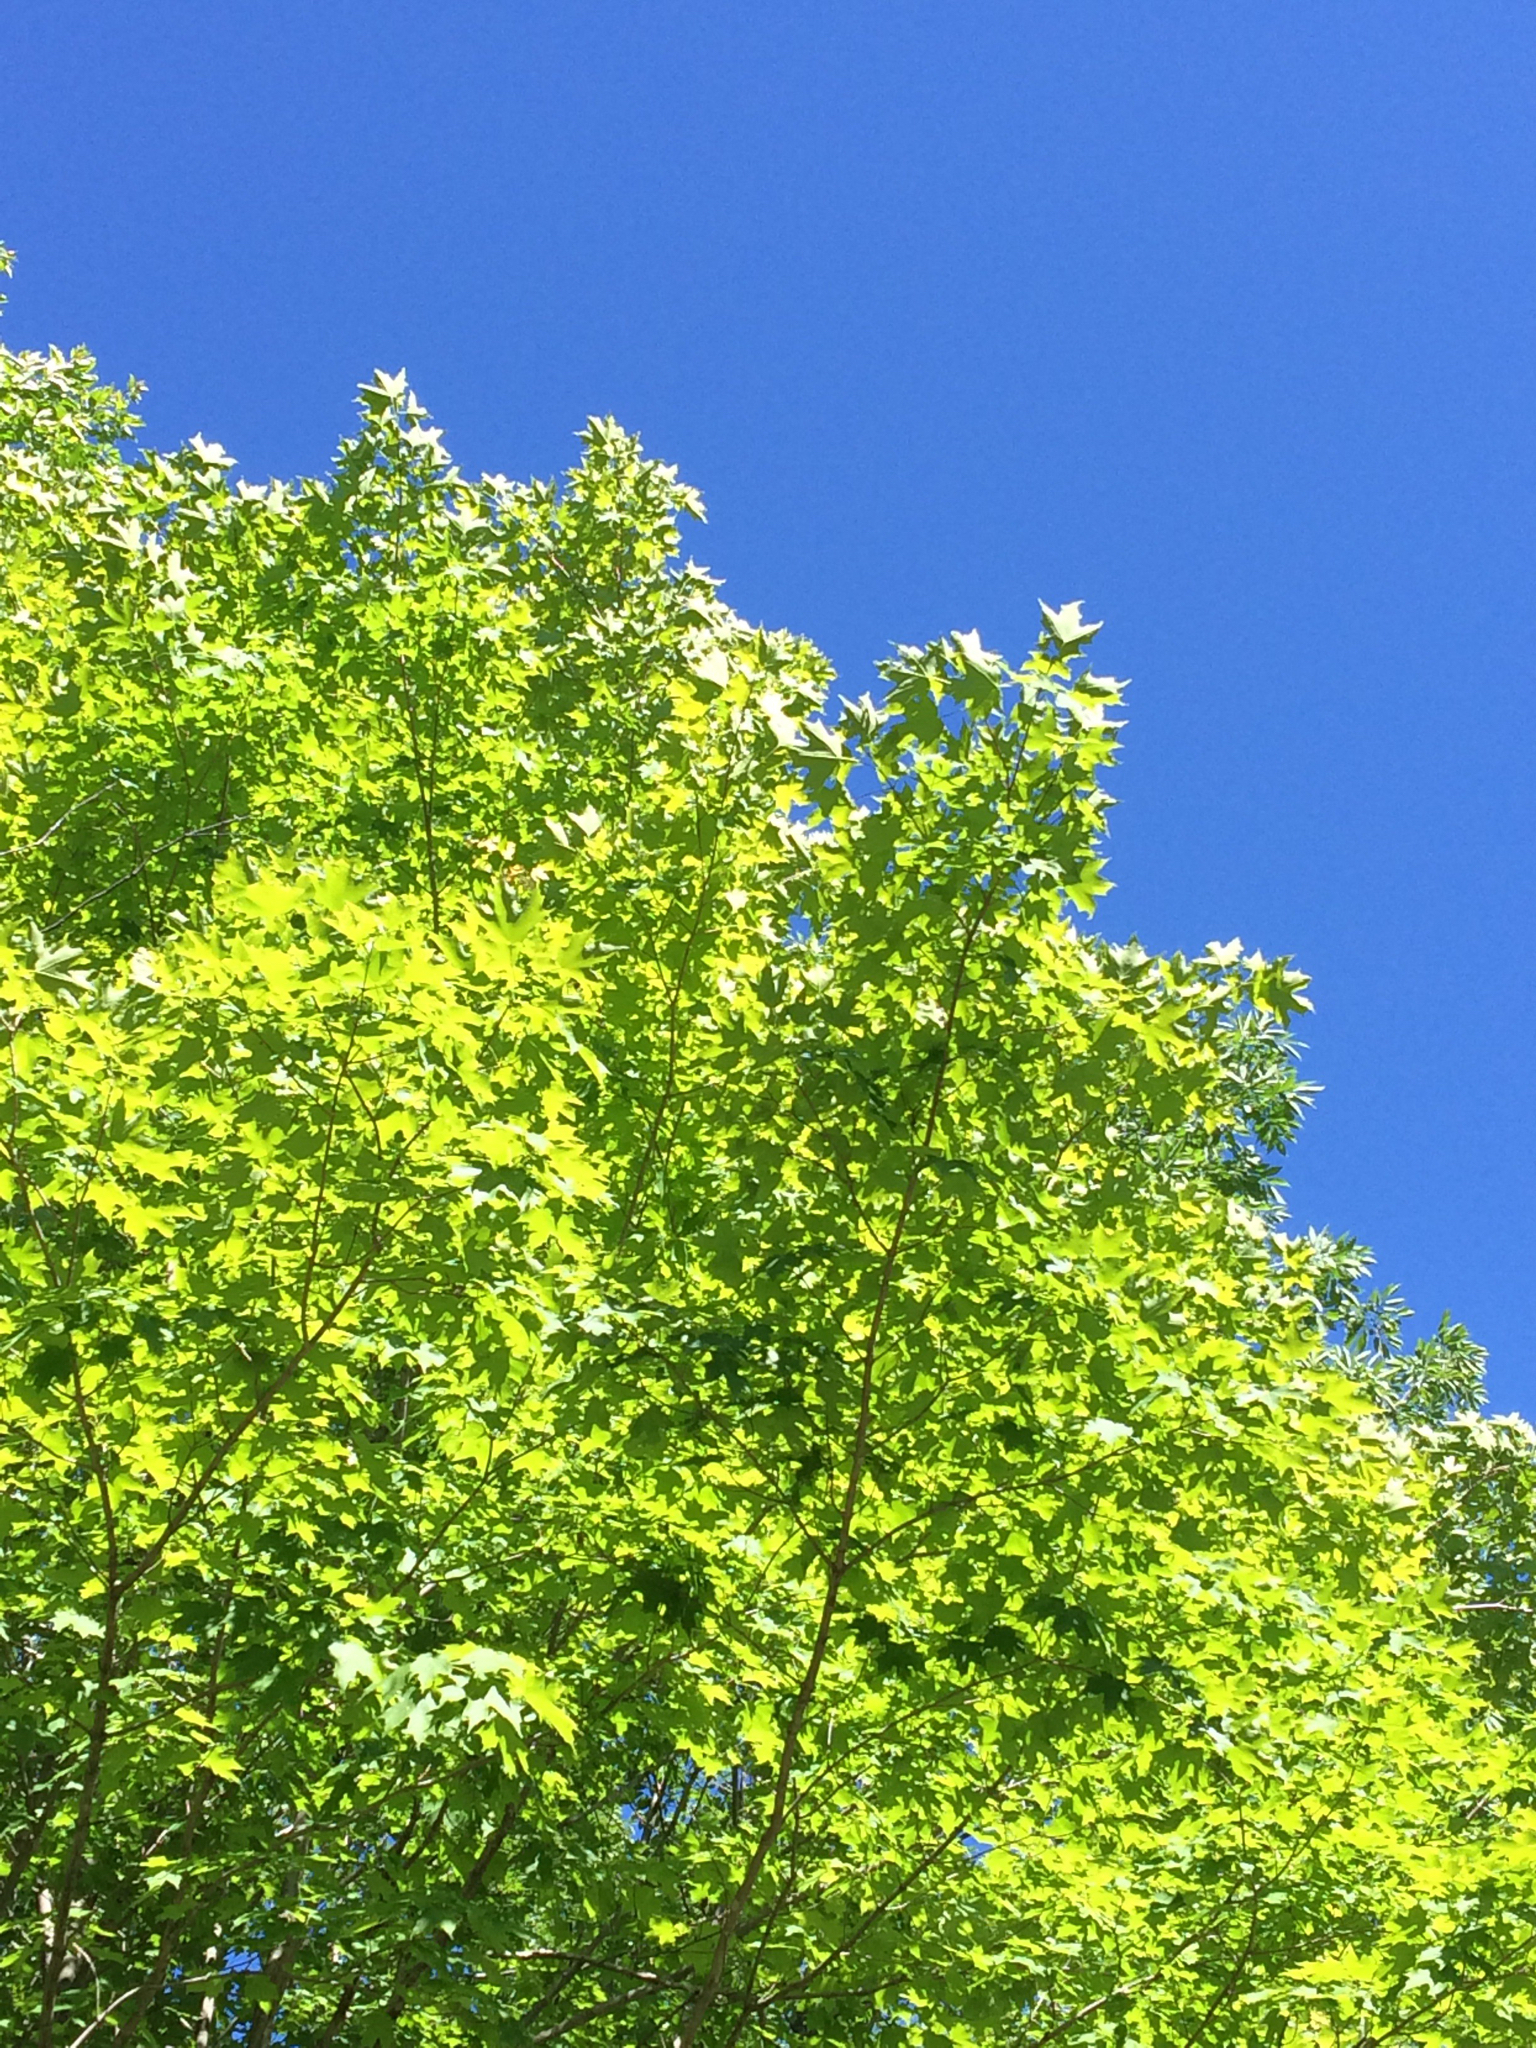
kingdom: Plantae
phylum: Tracheophyta
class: Magnoliopsida
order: Sapindales
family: Sapindaceae
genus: Acer
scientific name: Acer saccharum
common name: Sugar maple
